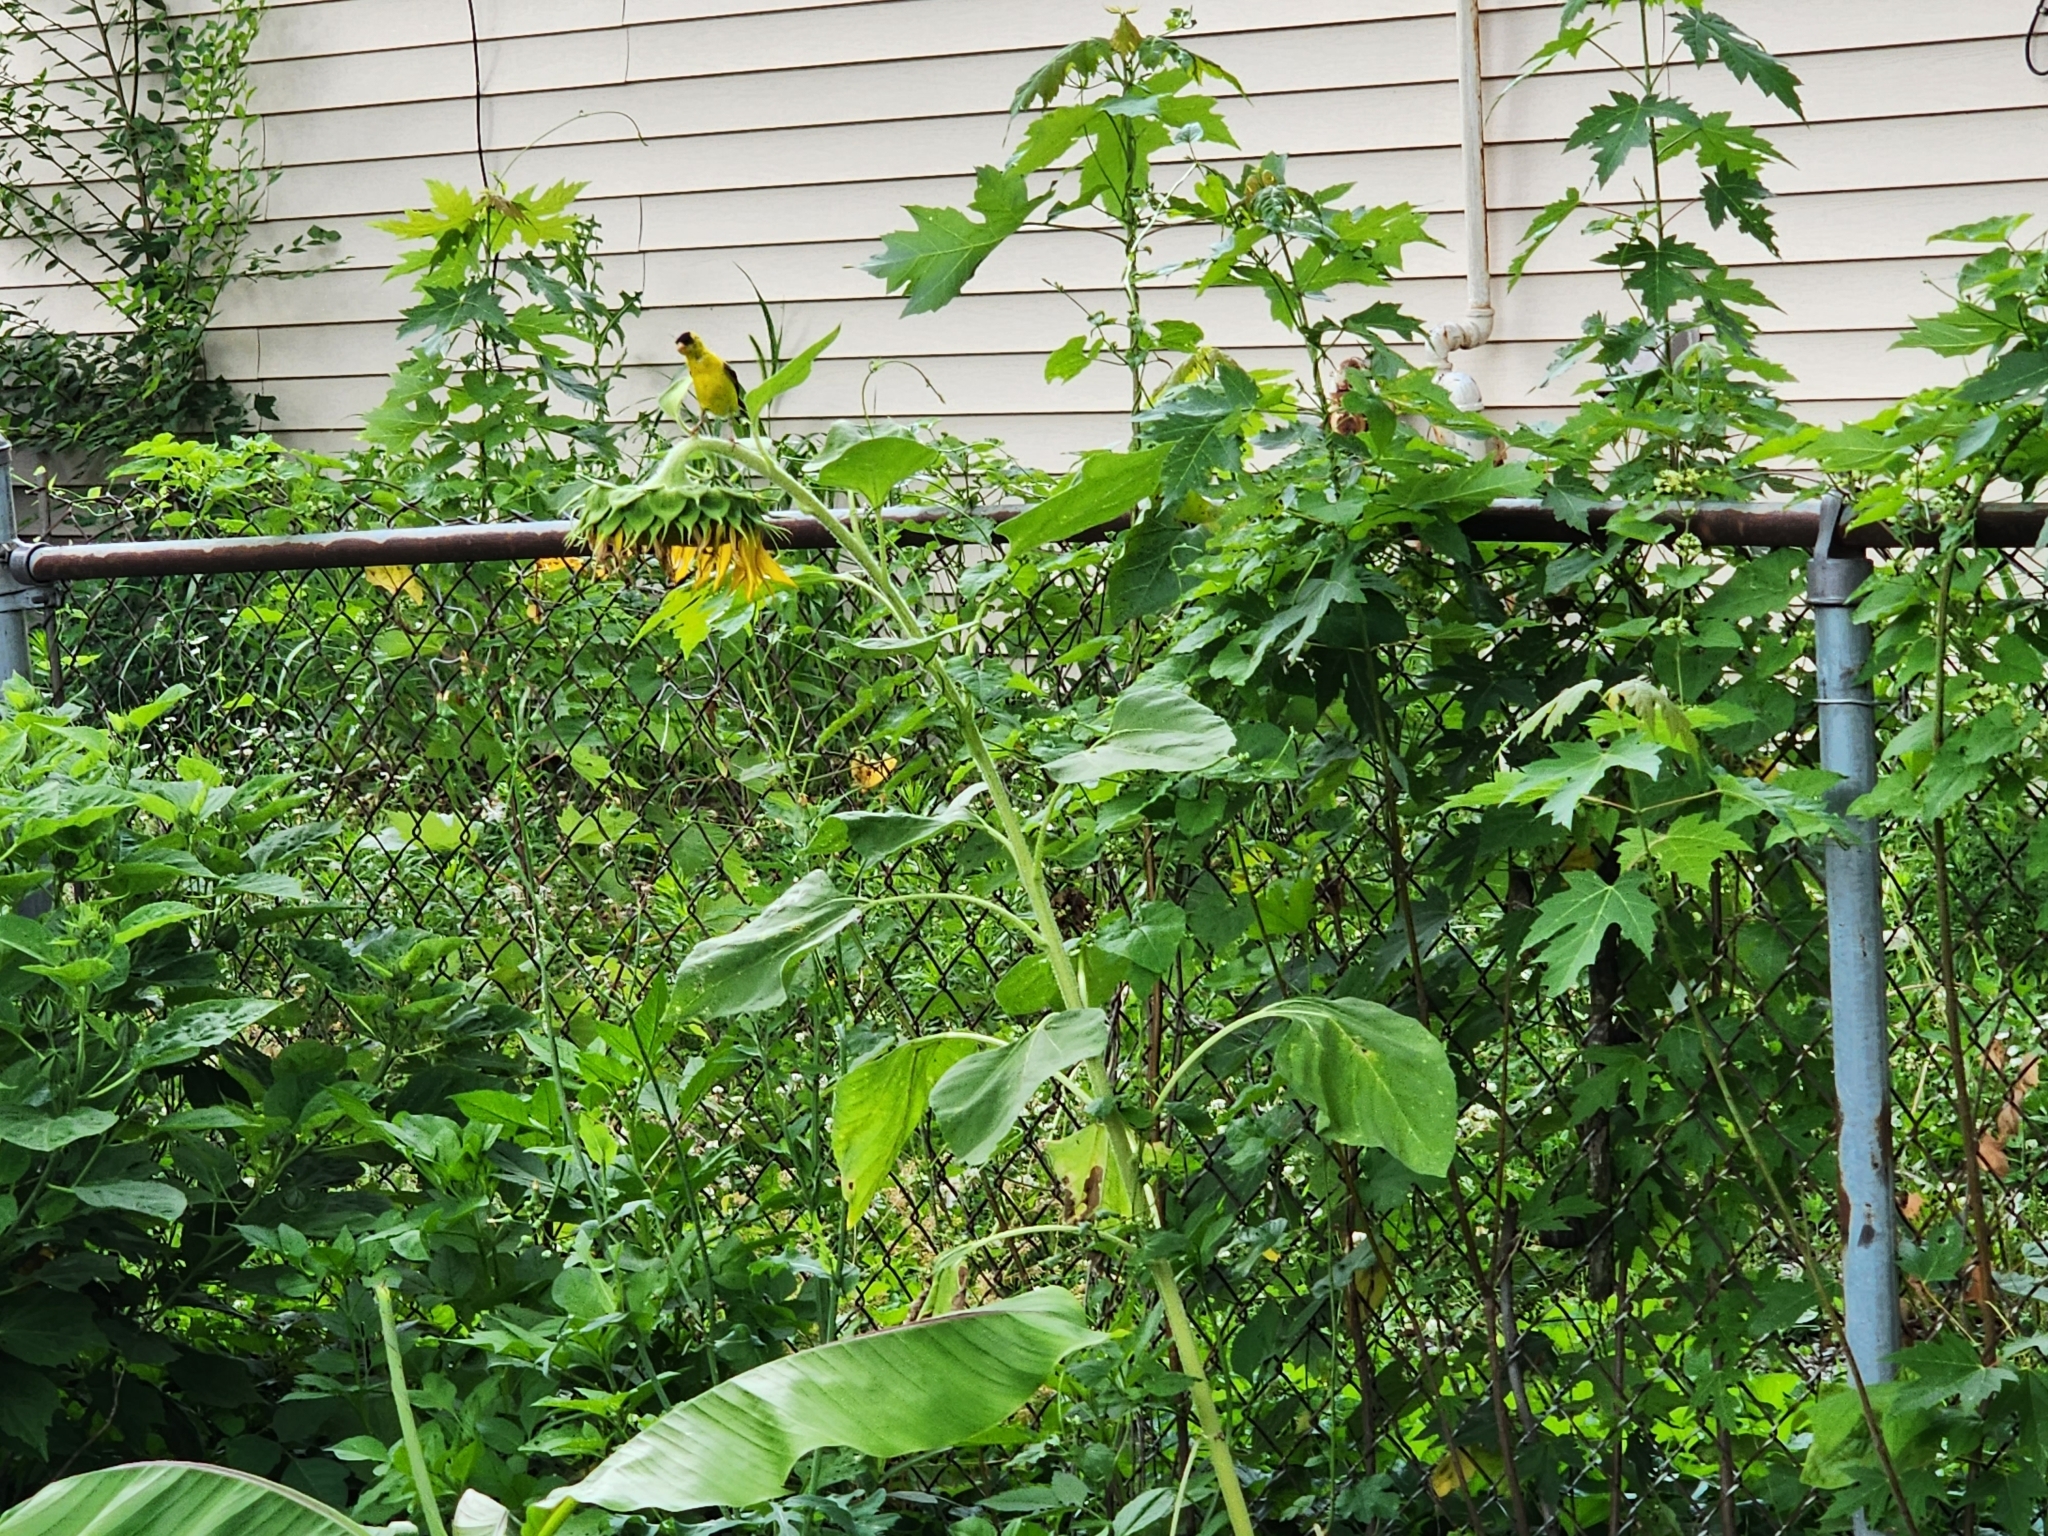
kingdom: Animalia
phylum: Chordata
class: Aves
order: Passeriformes
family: Fringillidae
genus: Spinus
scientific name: Spinus tristis
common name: American goldfinch
